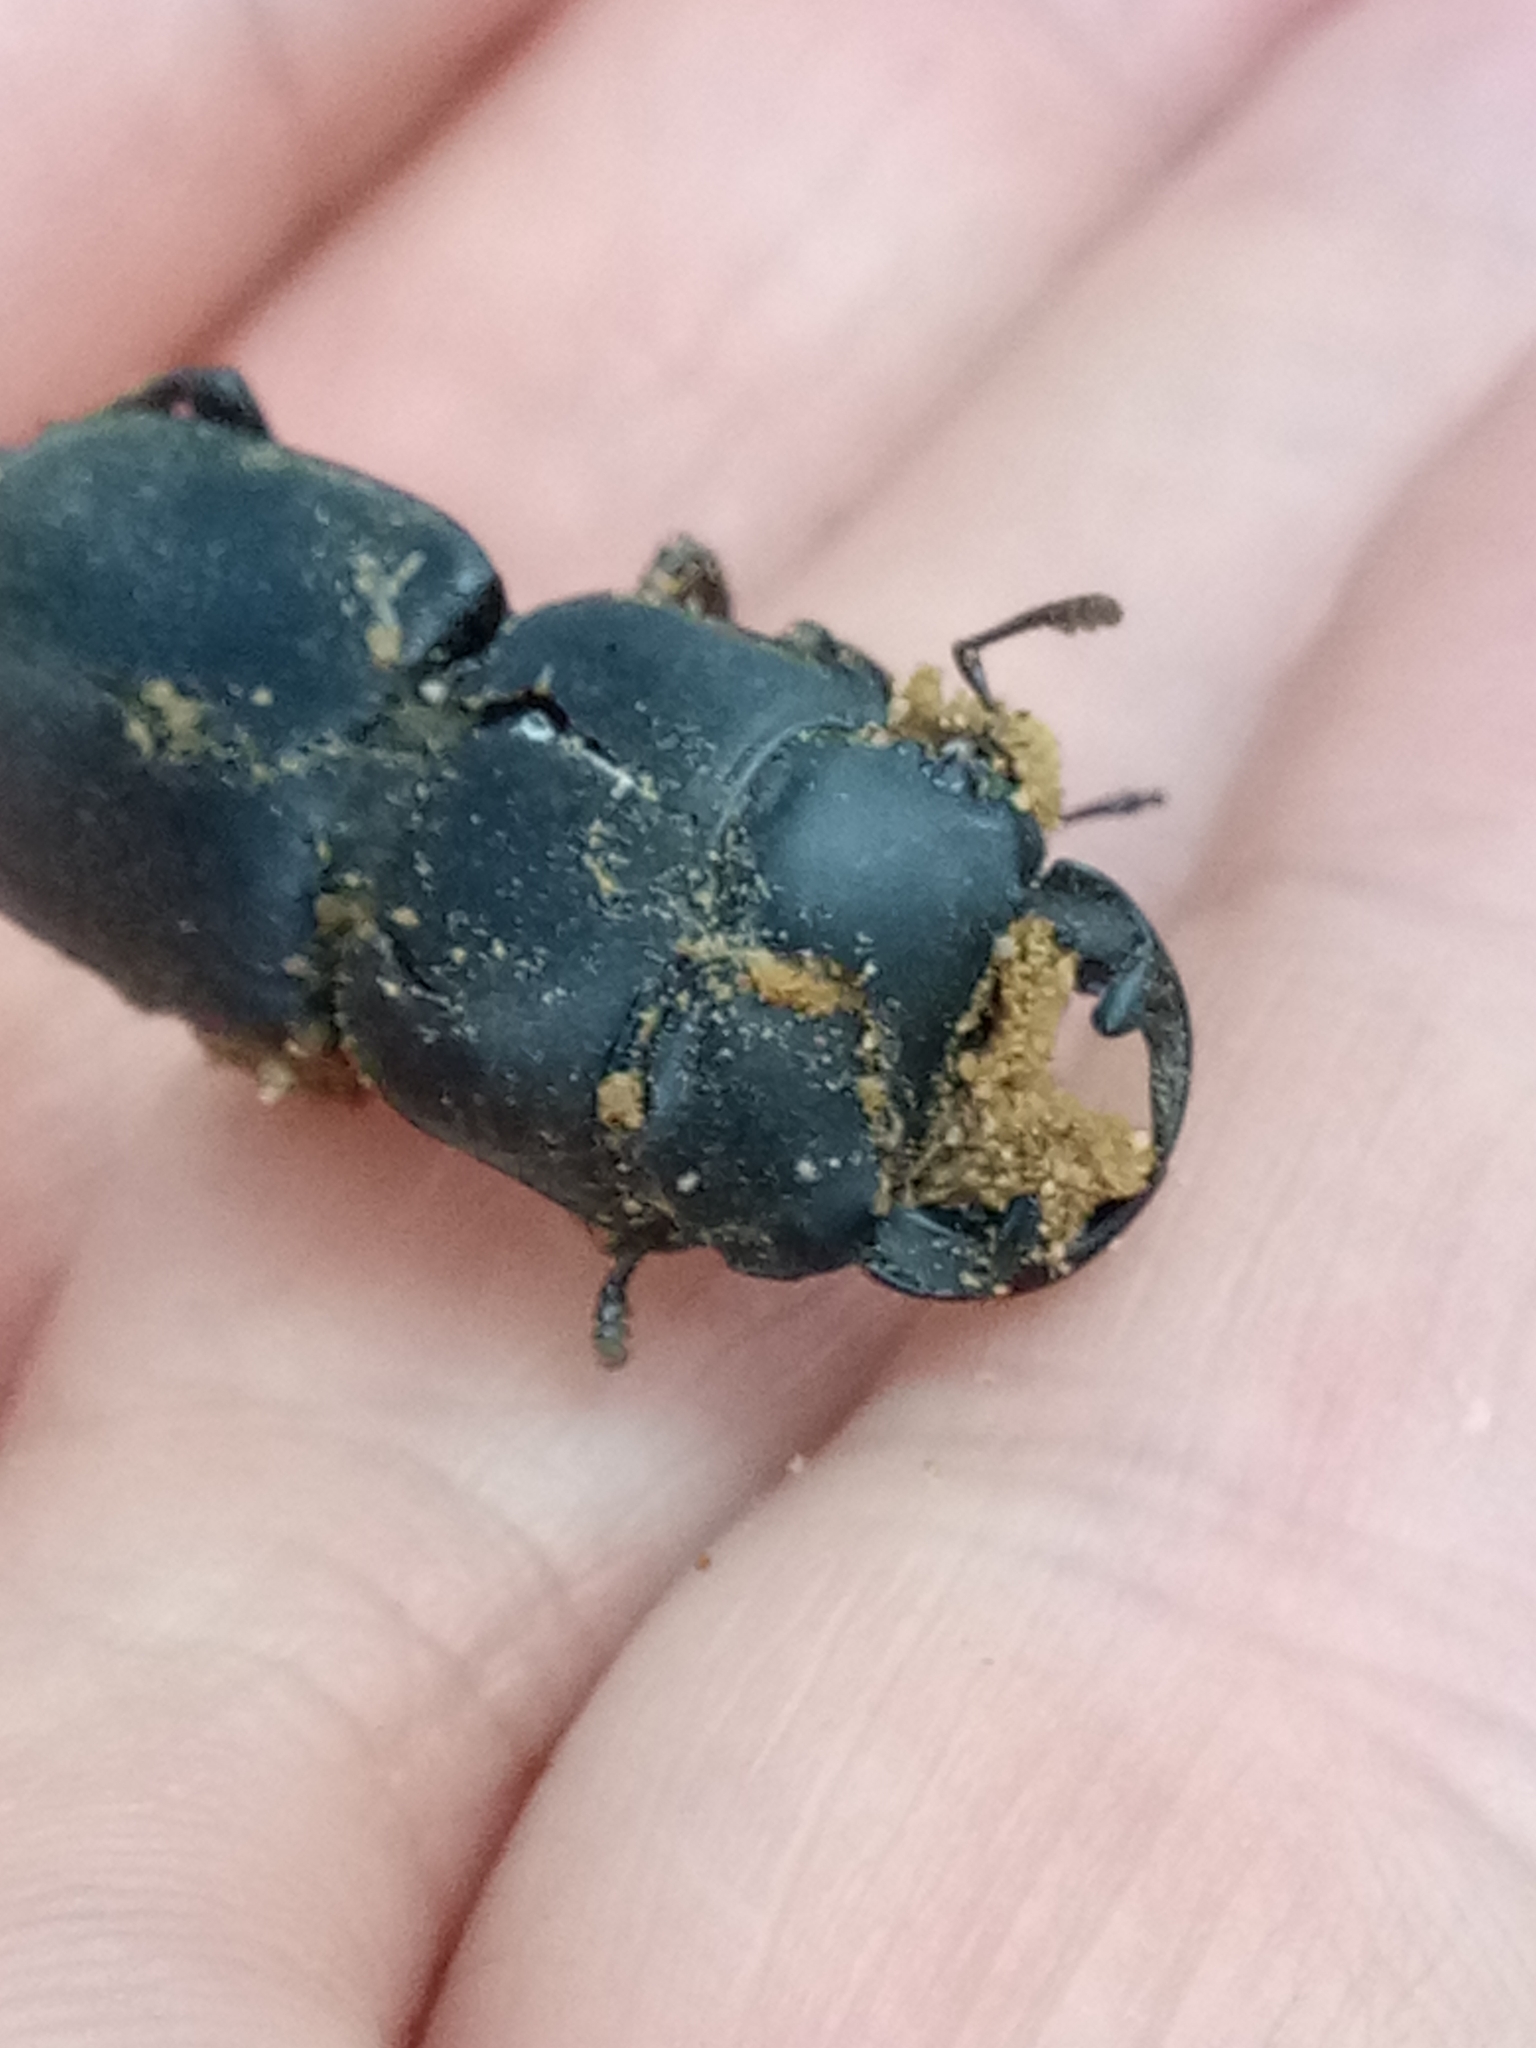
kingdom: Animalia
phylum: Arthropoda
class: Insecta
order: Coleoptera
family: Lucanidae
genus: Dorcus
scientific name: Dorcus musimon
